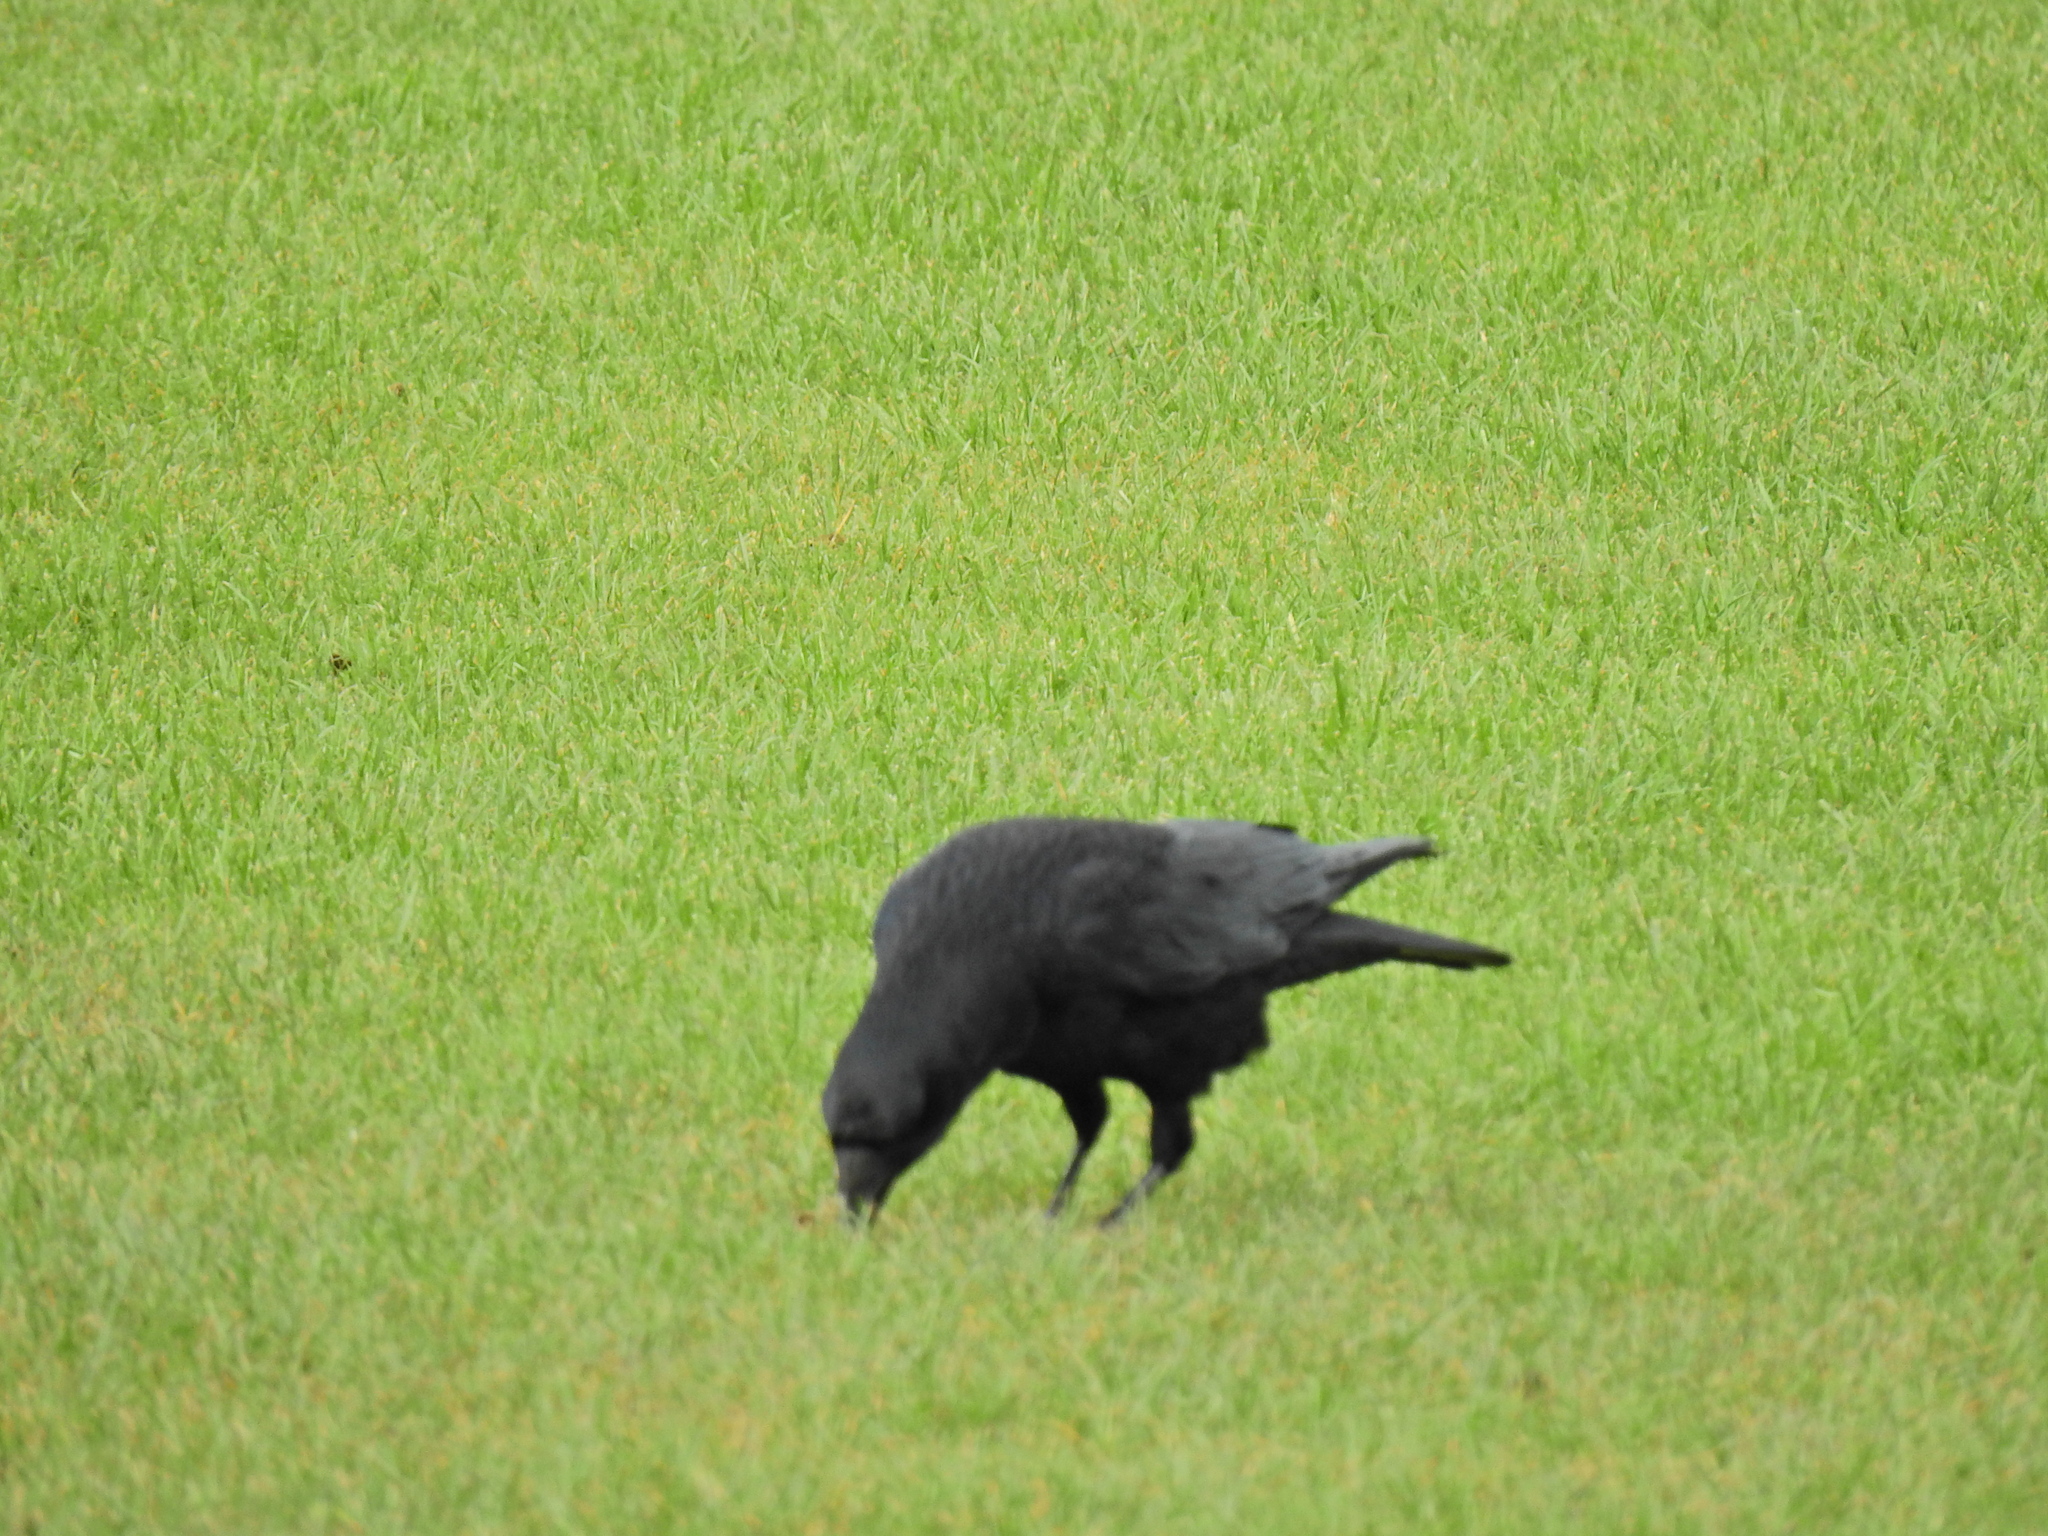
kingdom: Animalia
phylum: Chordata
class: Aves
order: Passeriformes
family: Corvidae
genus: Corvus
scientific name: Corvus corone
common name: Carrion crow
